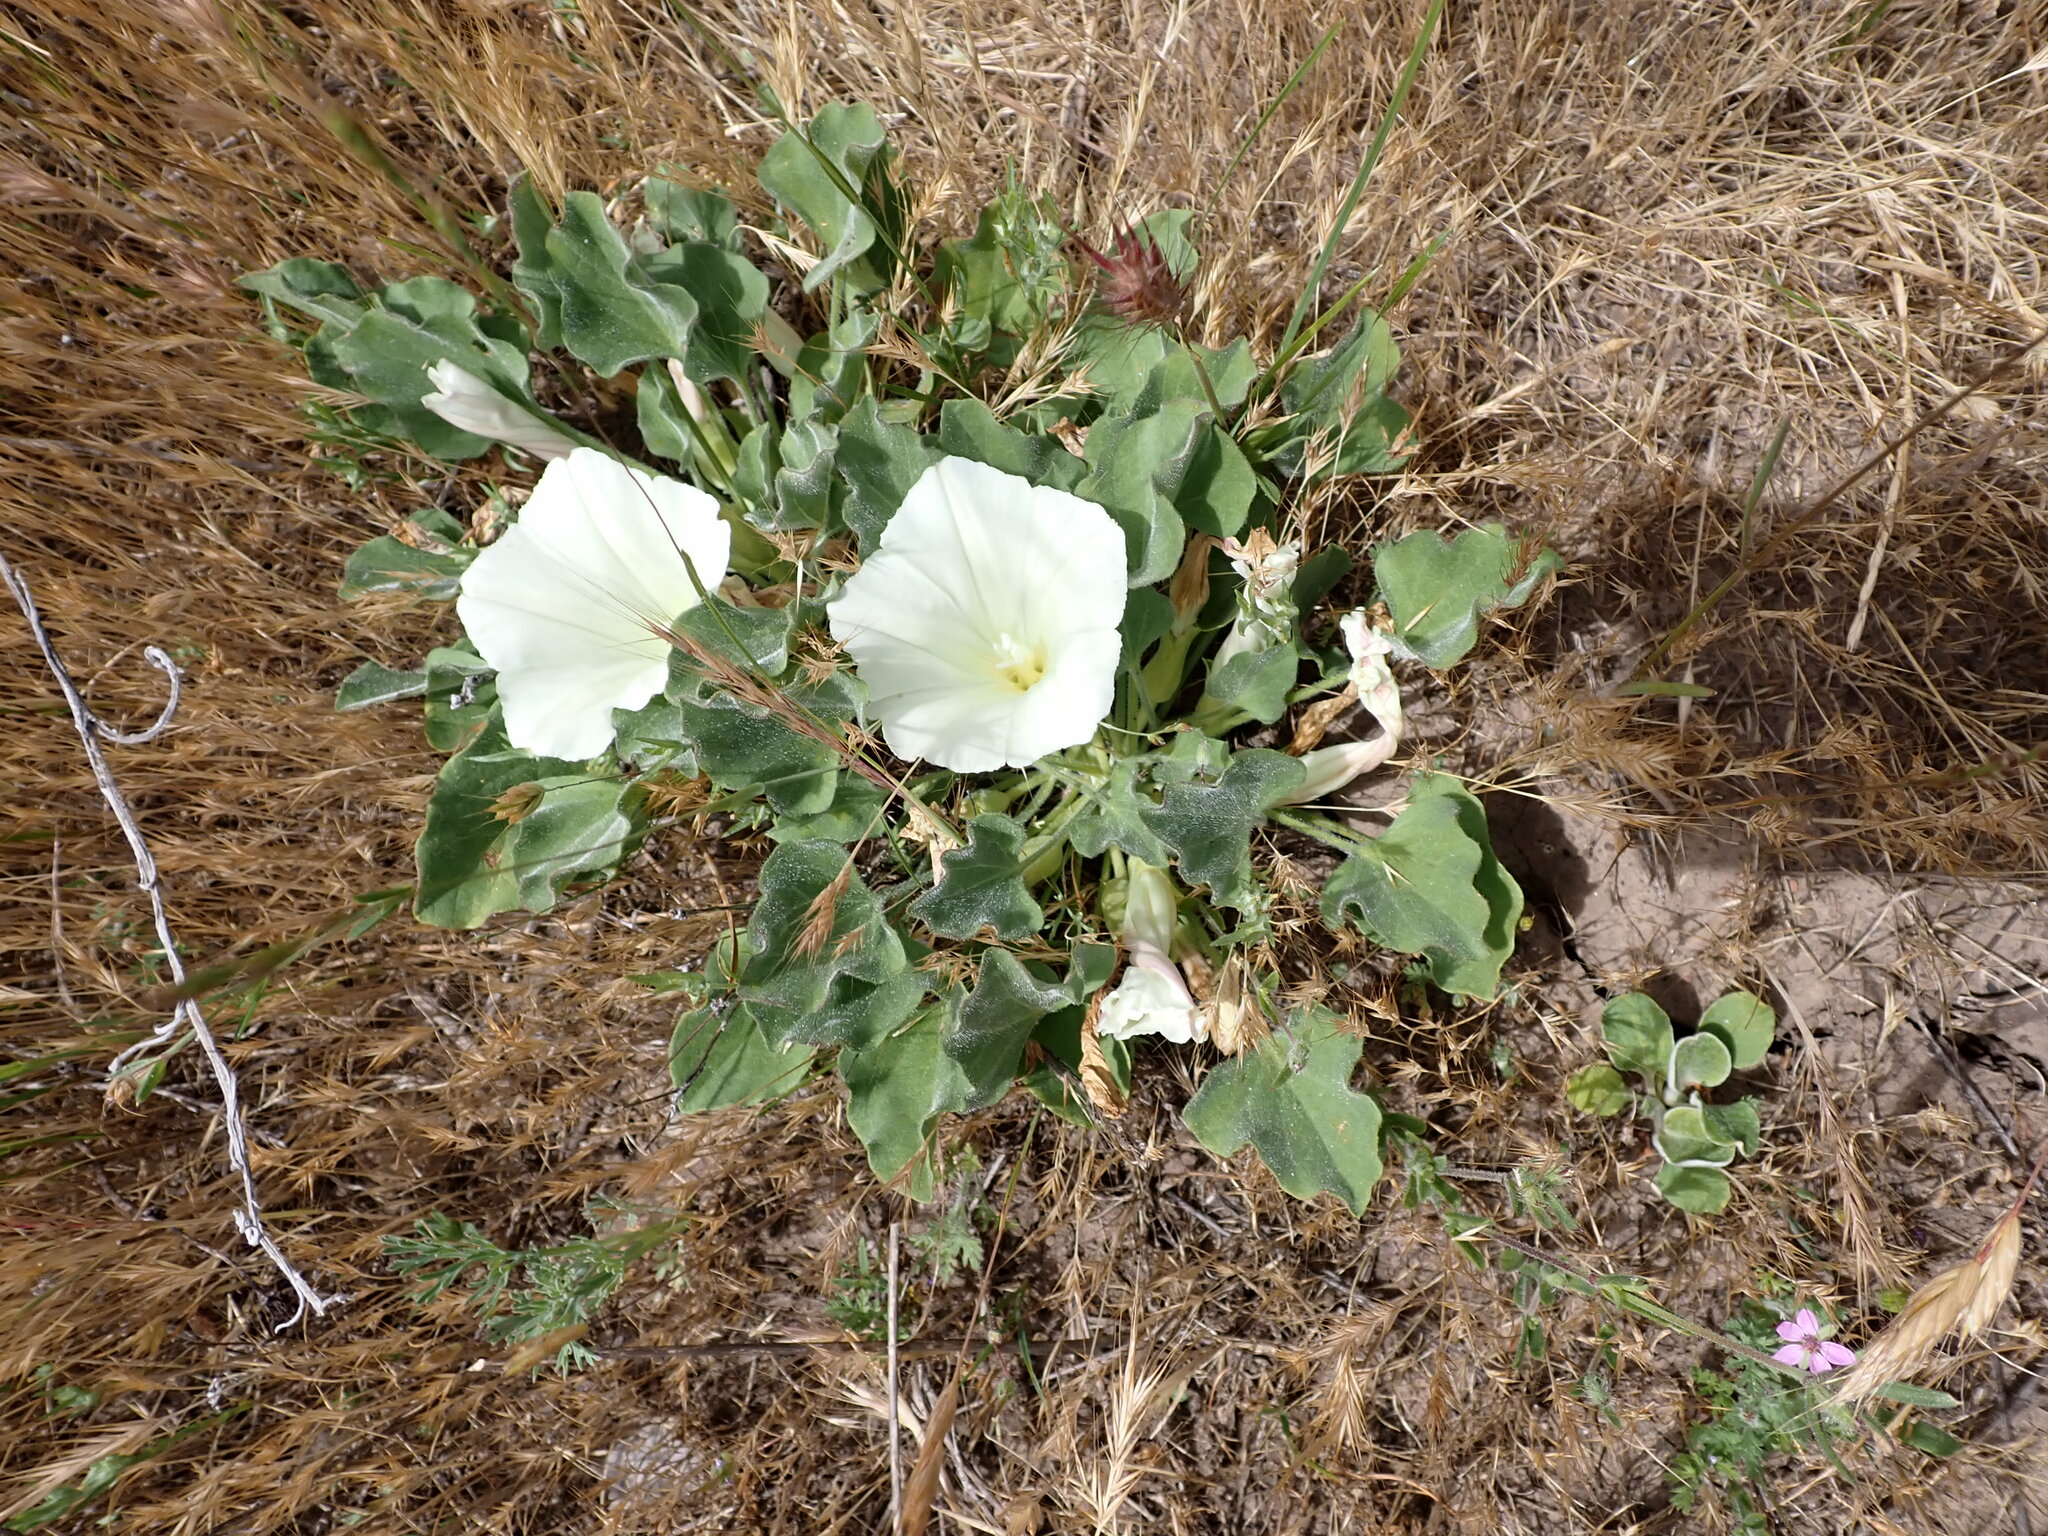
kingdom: Plantae
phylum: Tracheophyta
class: Magnoliopsida
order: Solanales
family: Convolvulaceae
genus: Calystegia
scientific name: Calystegia subacaulis
